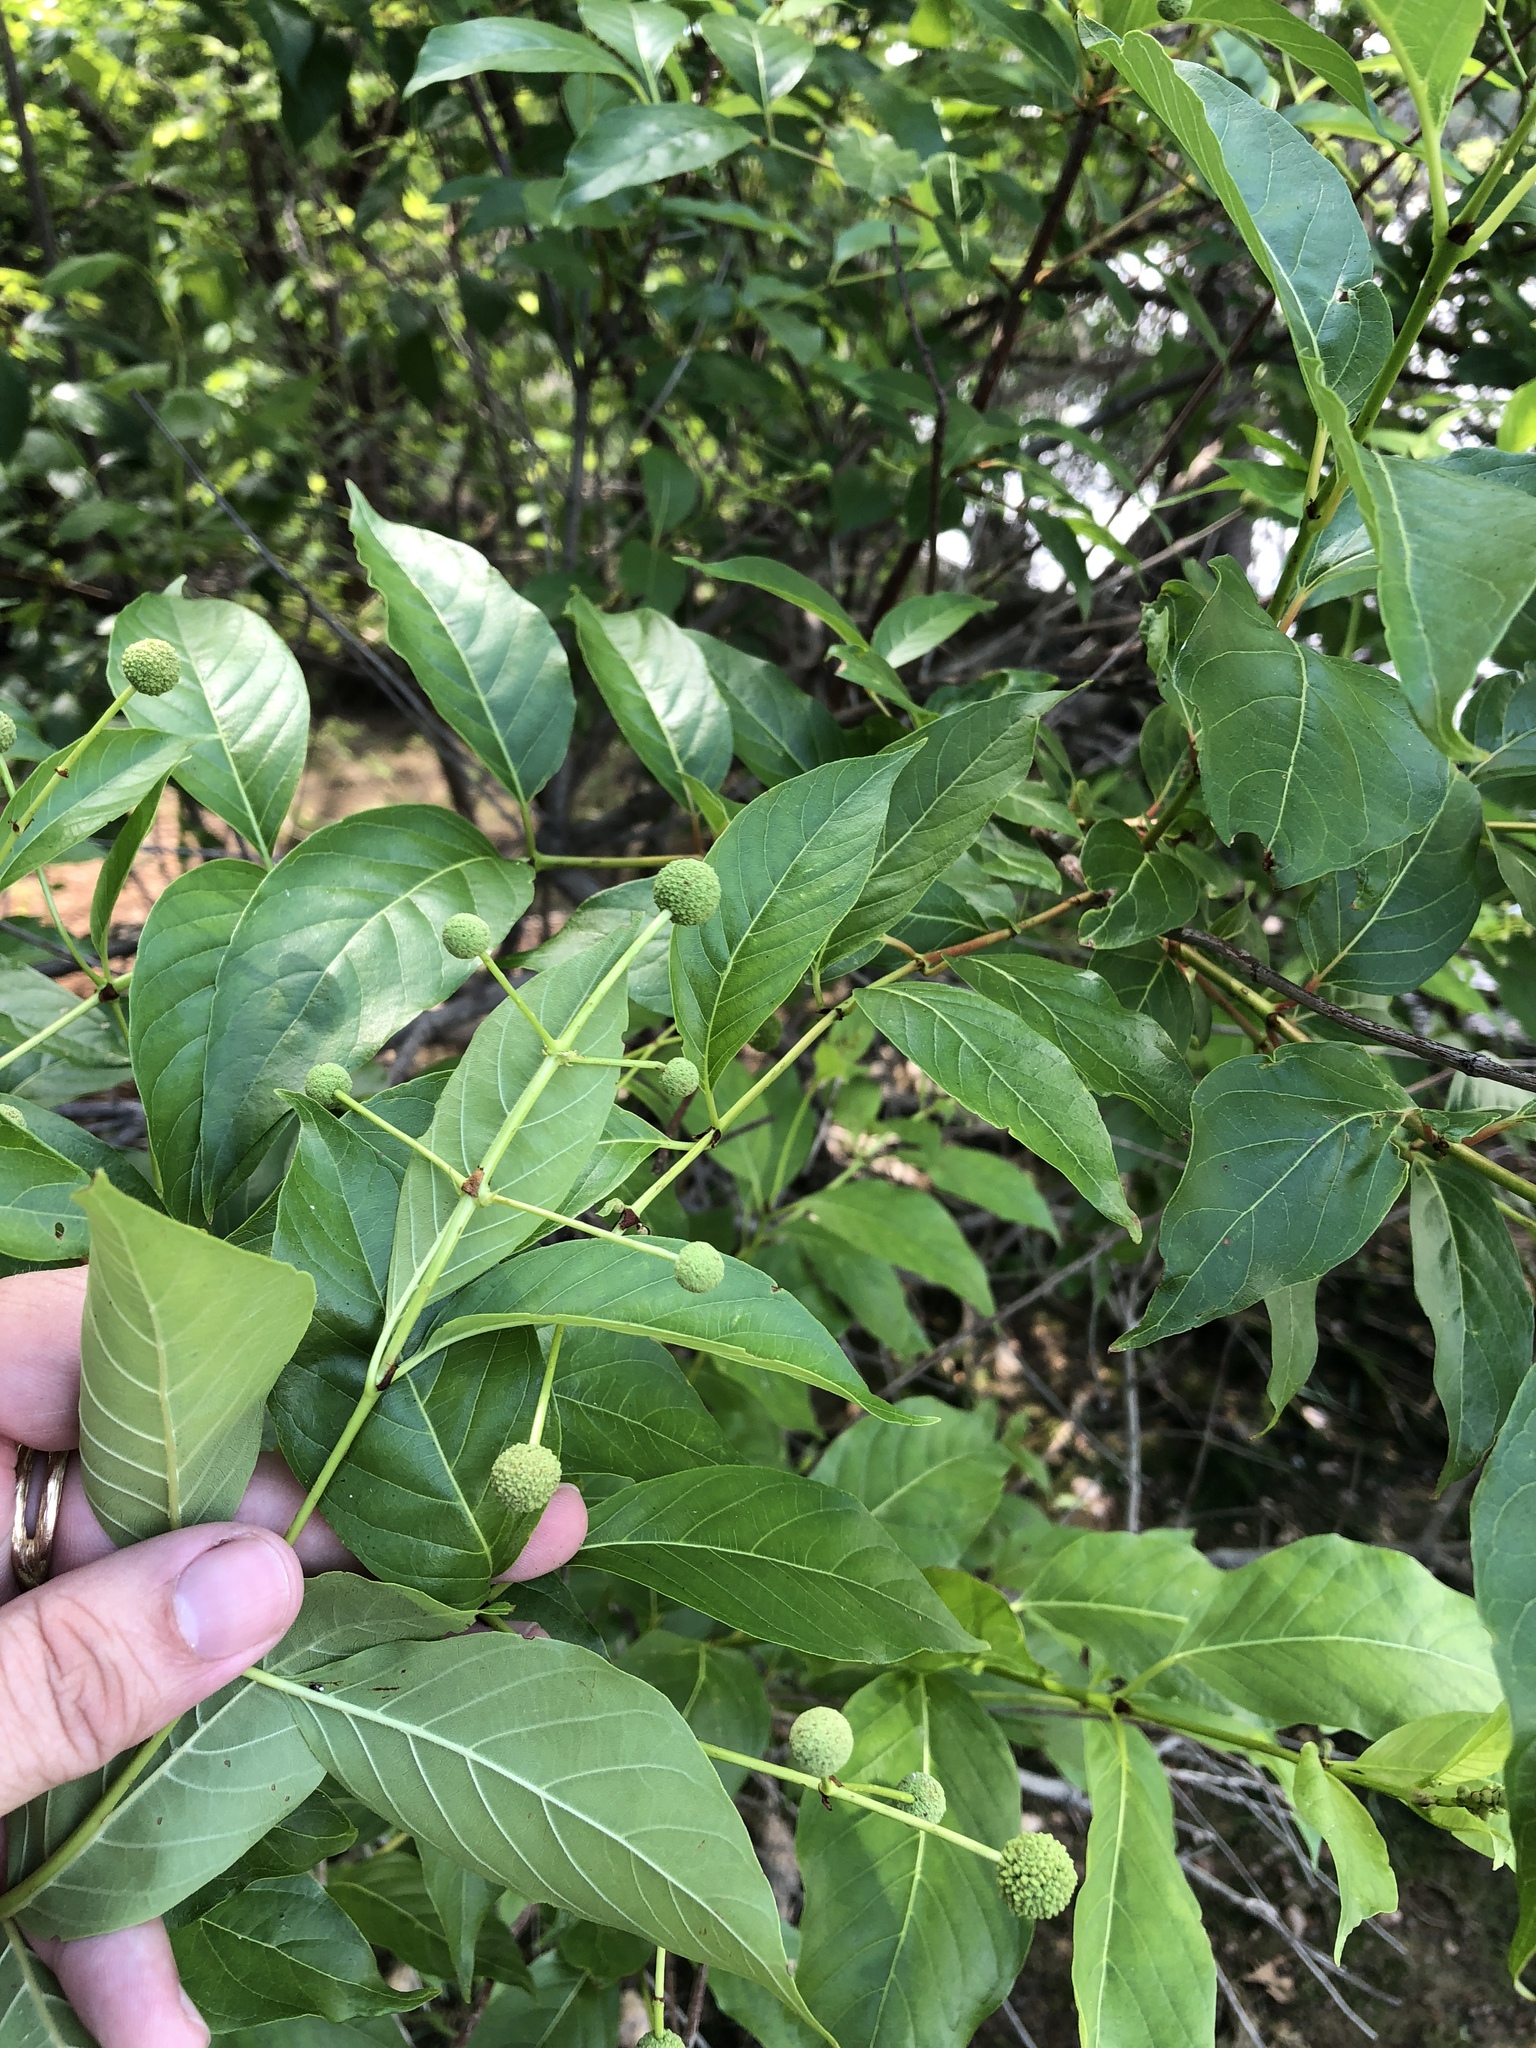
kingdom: Plantae
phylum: Tracheophyta
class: Magnoliopsida
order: Gentianales
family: Rubiaceae
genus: Cephalanthus
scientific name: Cephalanthus occidentalis
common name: Button-willow
